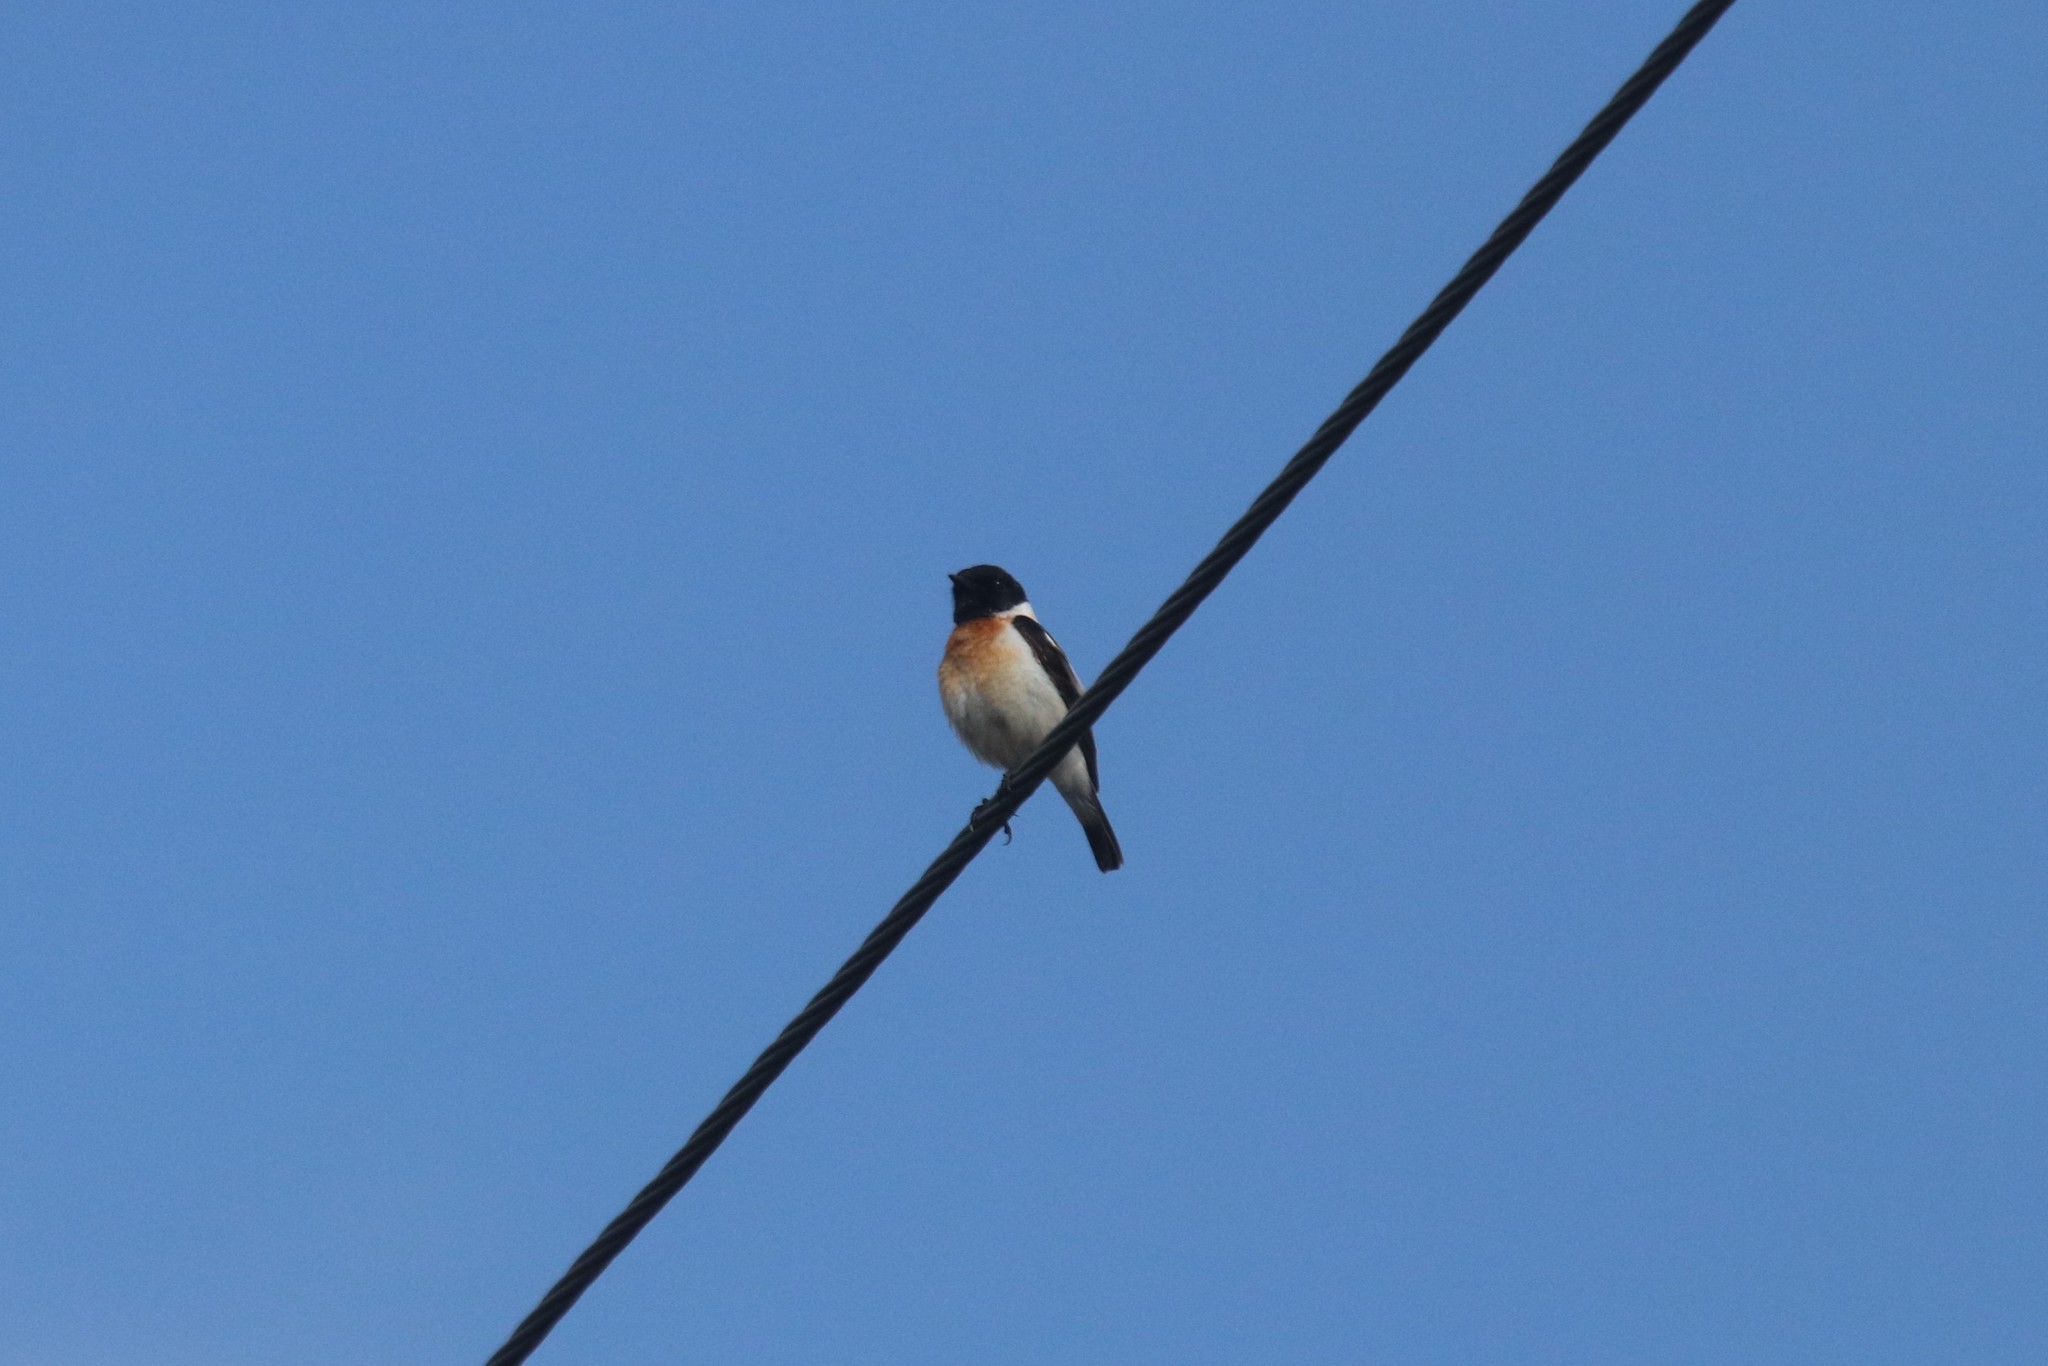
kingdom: Animalia
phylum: Chordata
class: Aves
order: Passeriformes
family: Muscicapidae
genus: Saxicola
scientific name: Saxicola maurus
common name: Siberian stonechat
